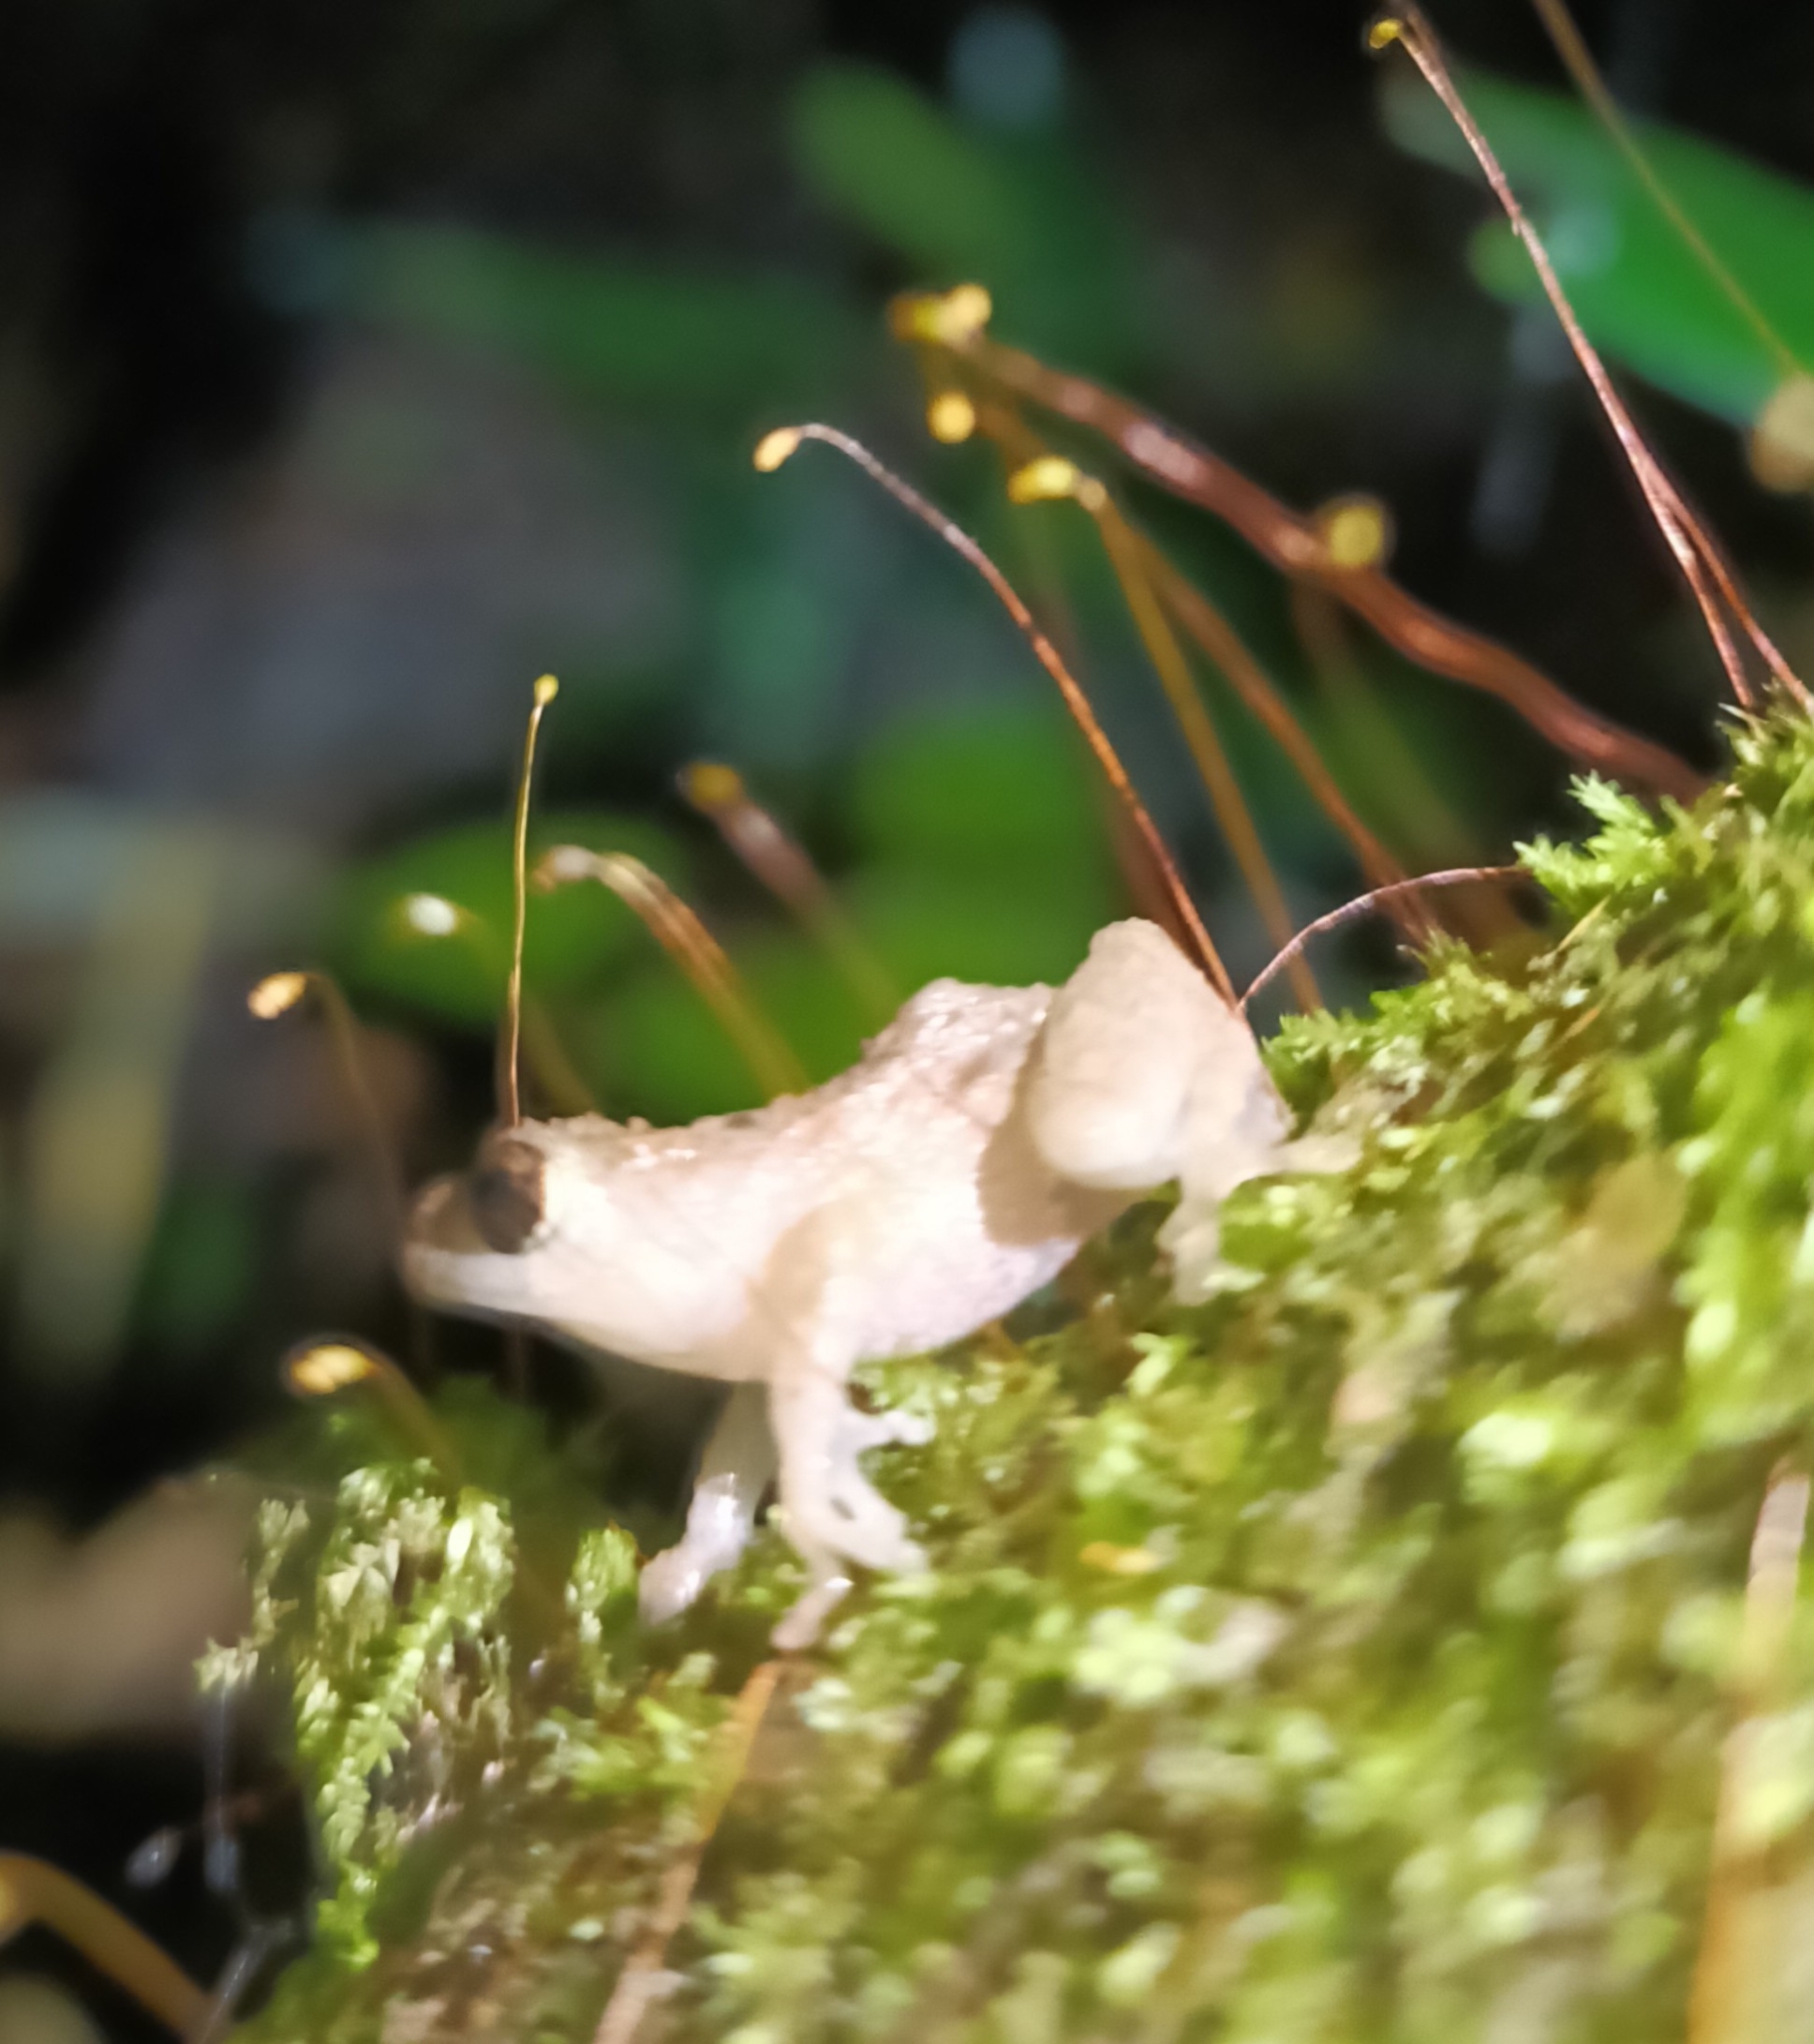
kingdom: Animalia
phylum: Chordata
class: Amphibia
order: Anura
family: Rhacophoridae
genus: Raorchestes
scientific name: Raorchestes bombayensis
